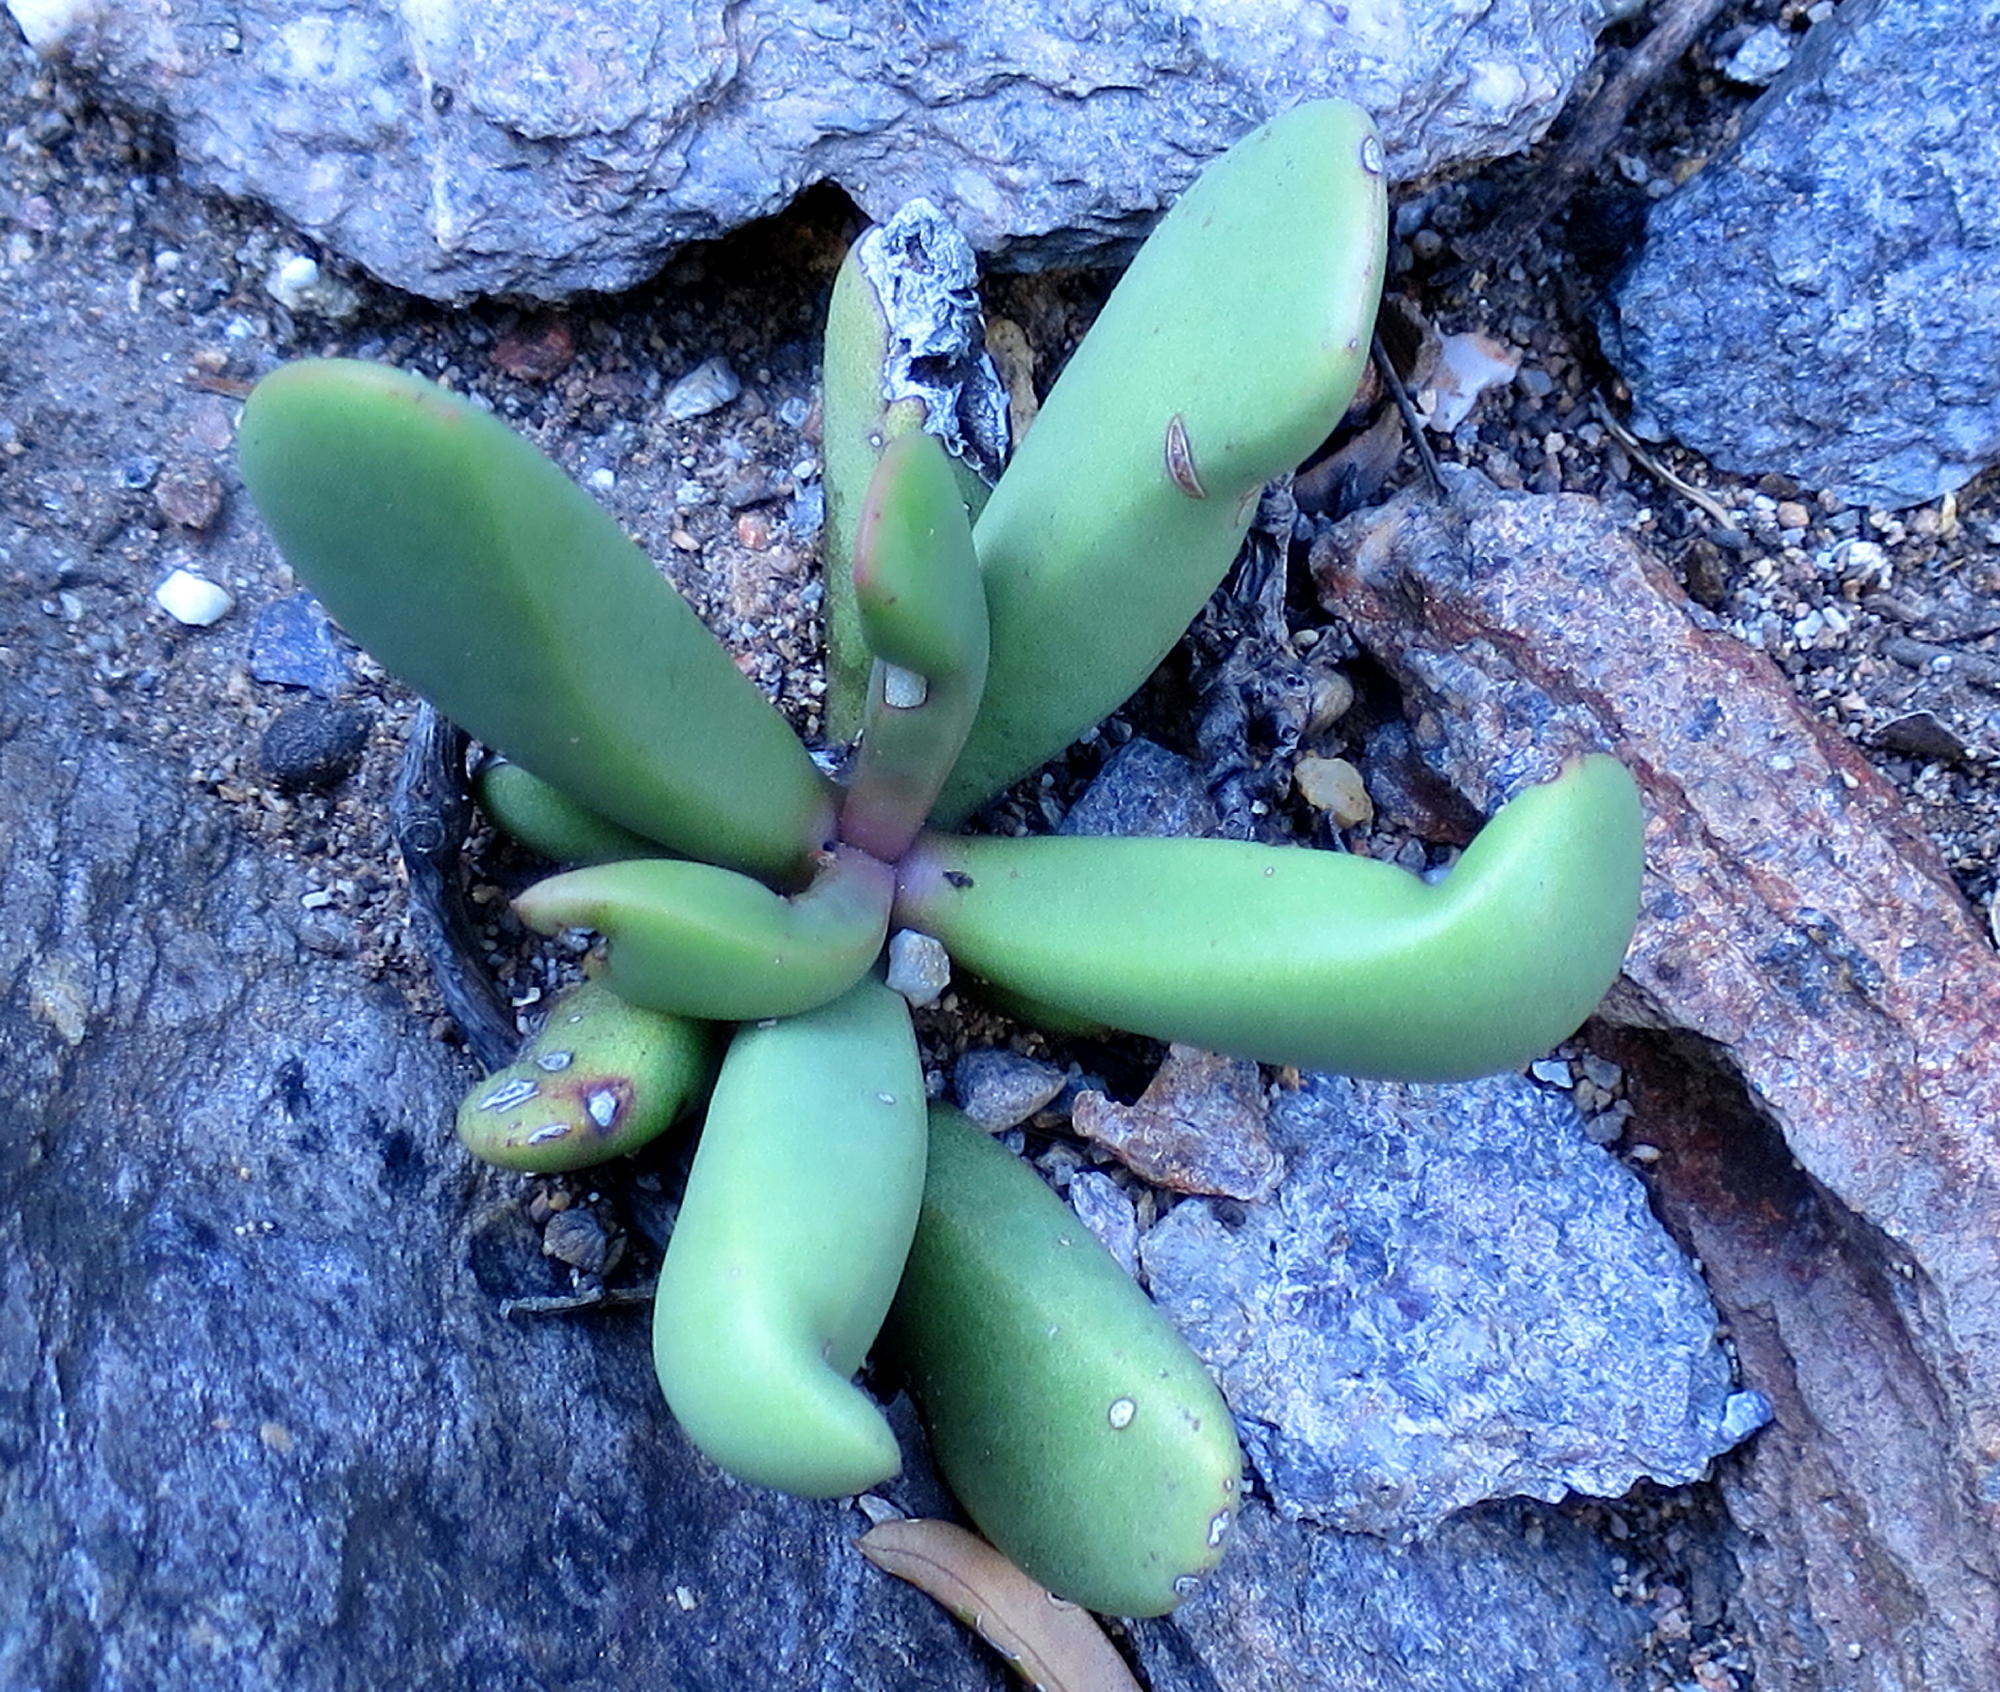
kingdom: Plantae
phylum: Tracheophyta
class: Magnoliopsida
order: Caryophyllales
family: Aizoaceae
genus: Bijlia
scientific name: Bijlia tugwelliae
